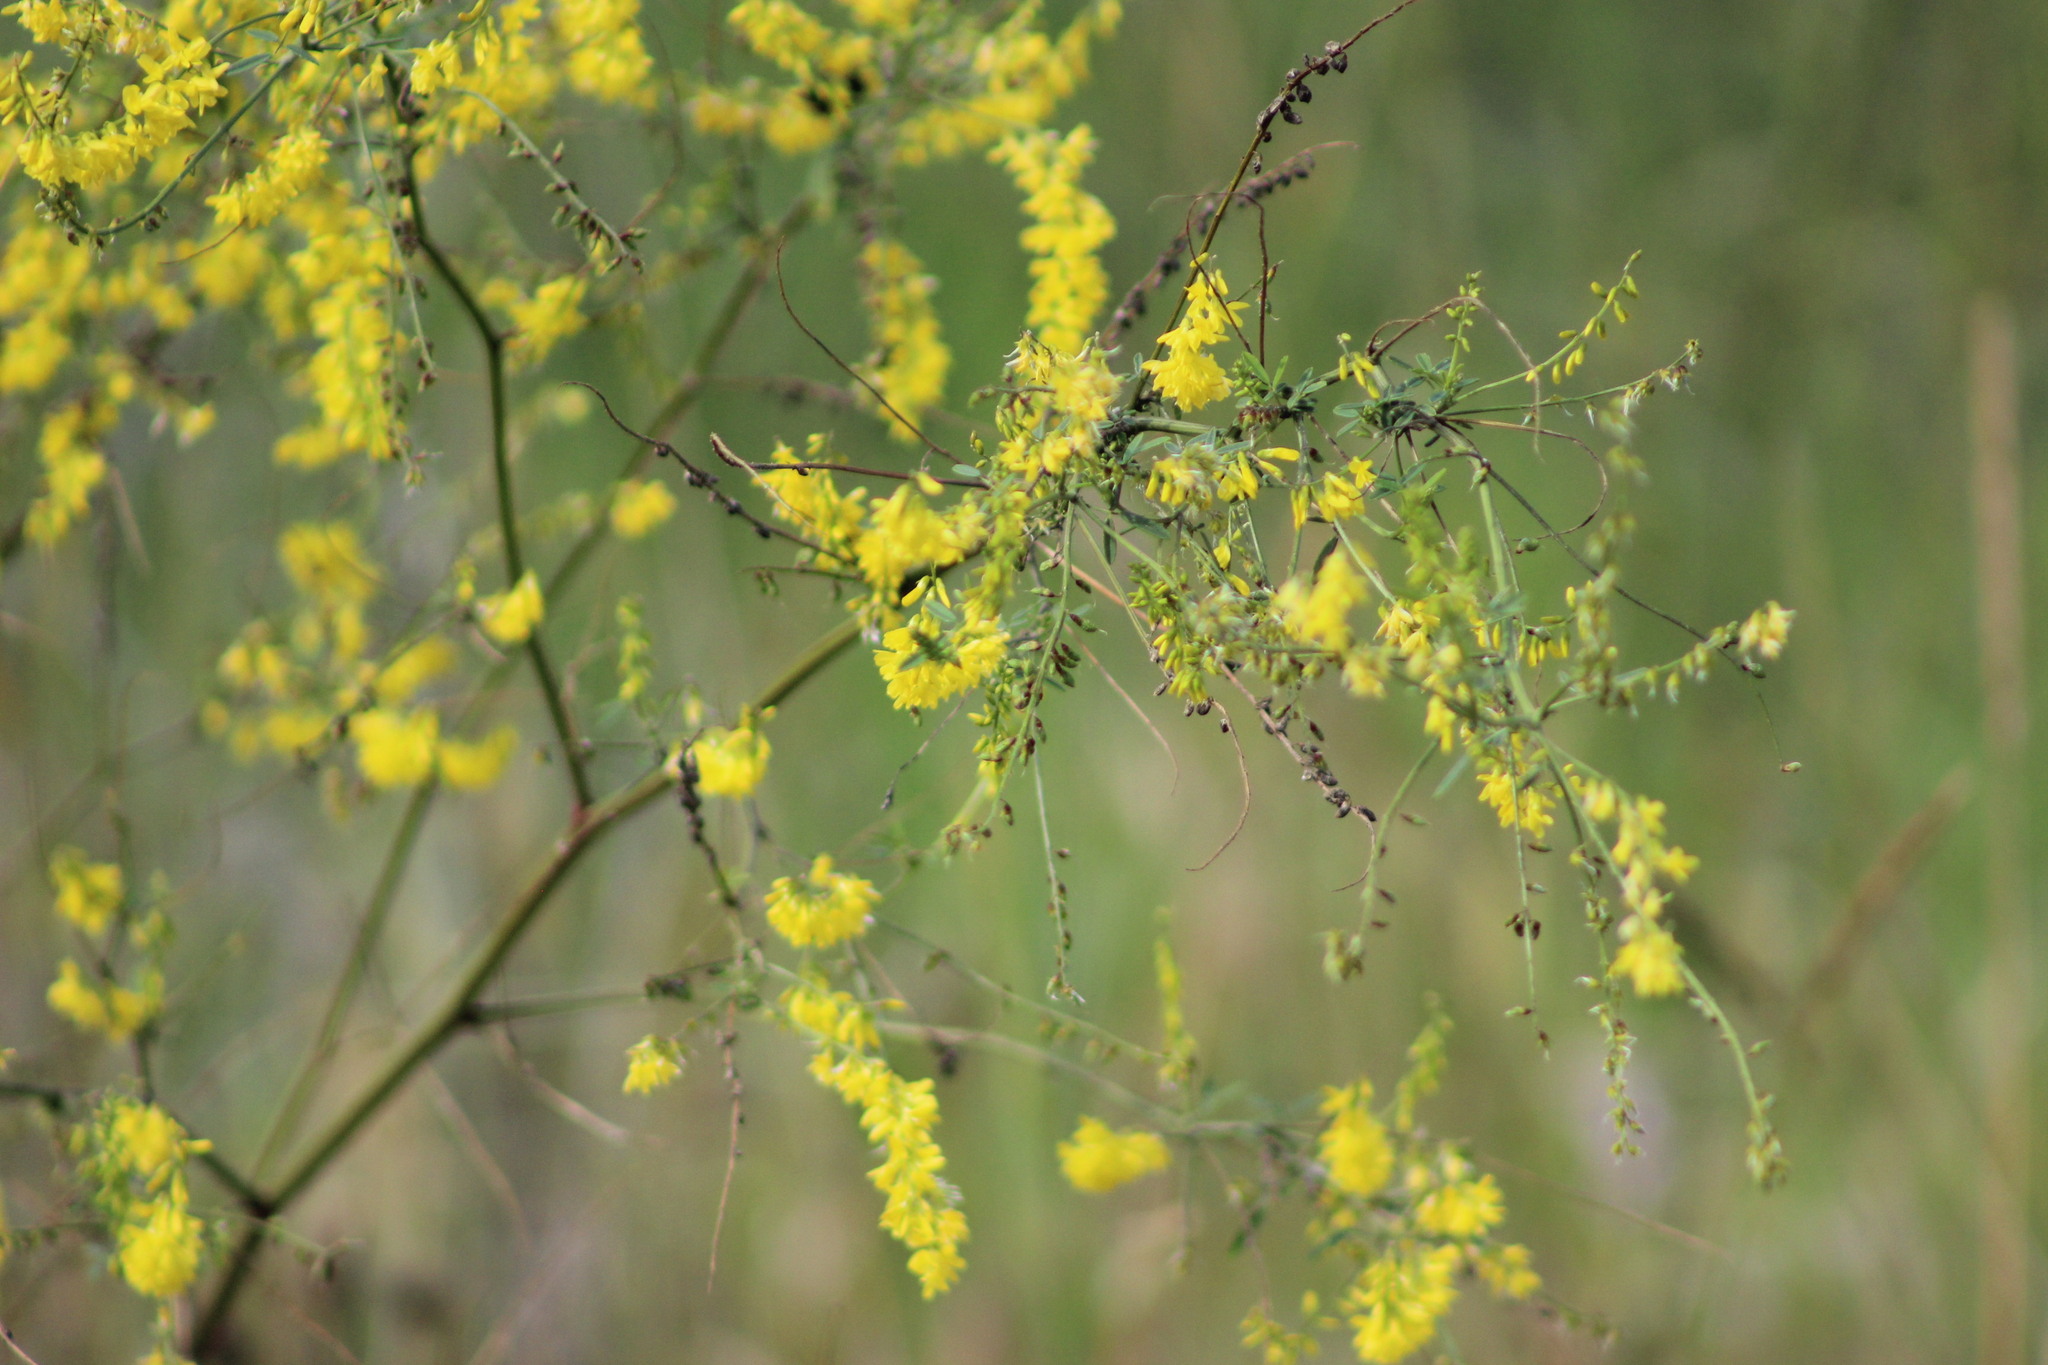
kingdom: Plantae
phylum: Tracheophyta
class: Magnoliopsida
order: Fabales
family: Fabaceae
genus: Melilotus
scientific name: Melilotus officinalis
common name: Sweetclover
